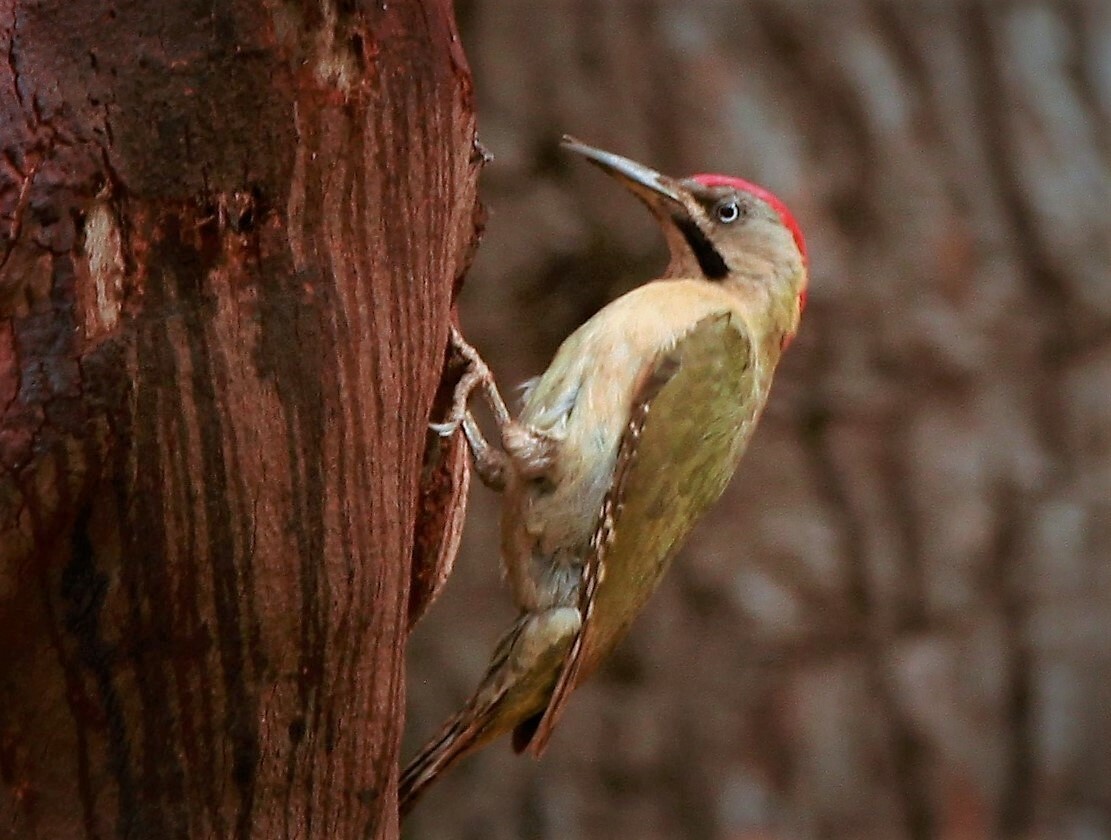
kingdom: Animalia
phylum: Chordata
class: Aves
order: Piciformes
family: Picidae
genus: Picus
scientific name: Picus vaillantii
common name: Levaillant's woodpecker
